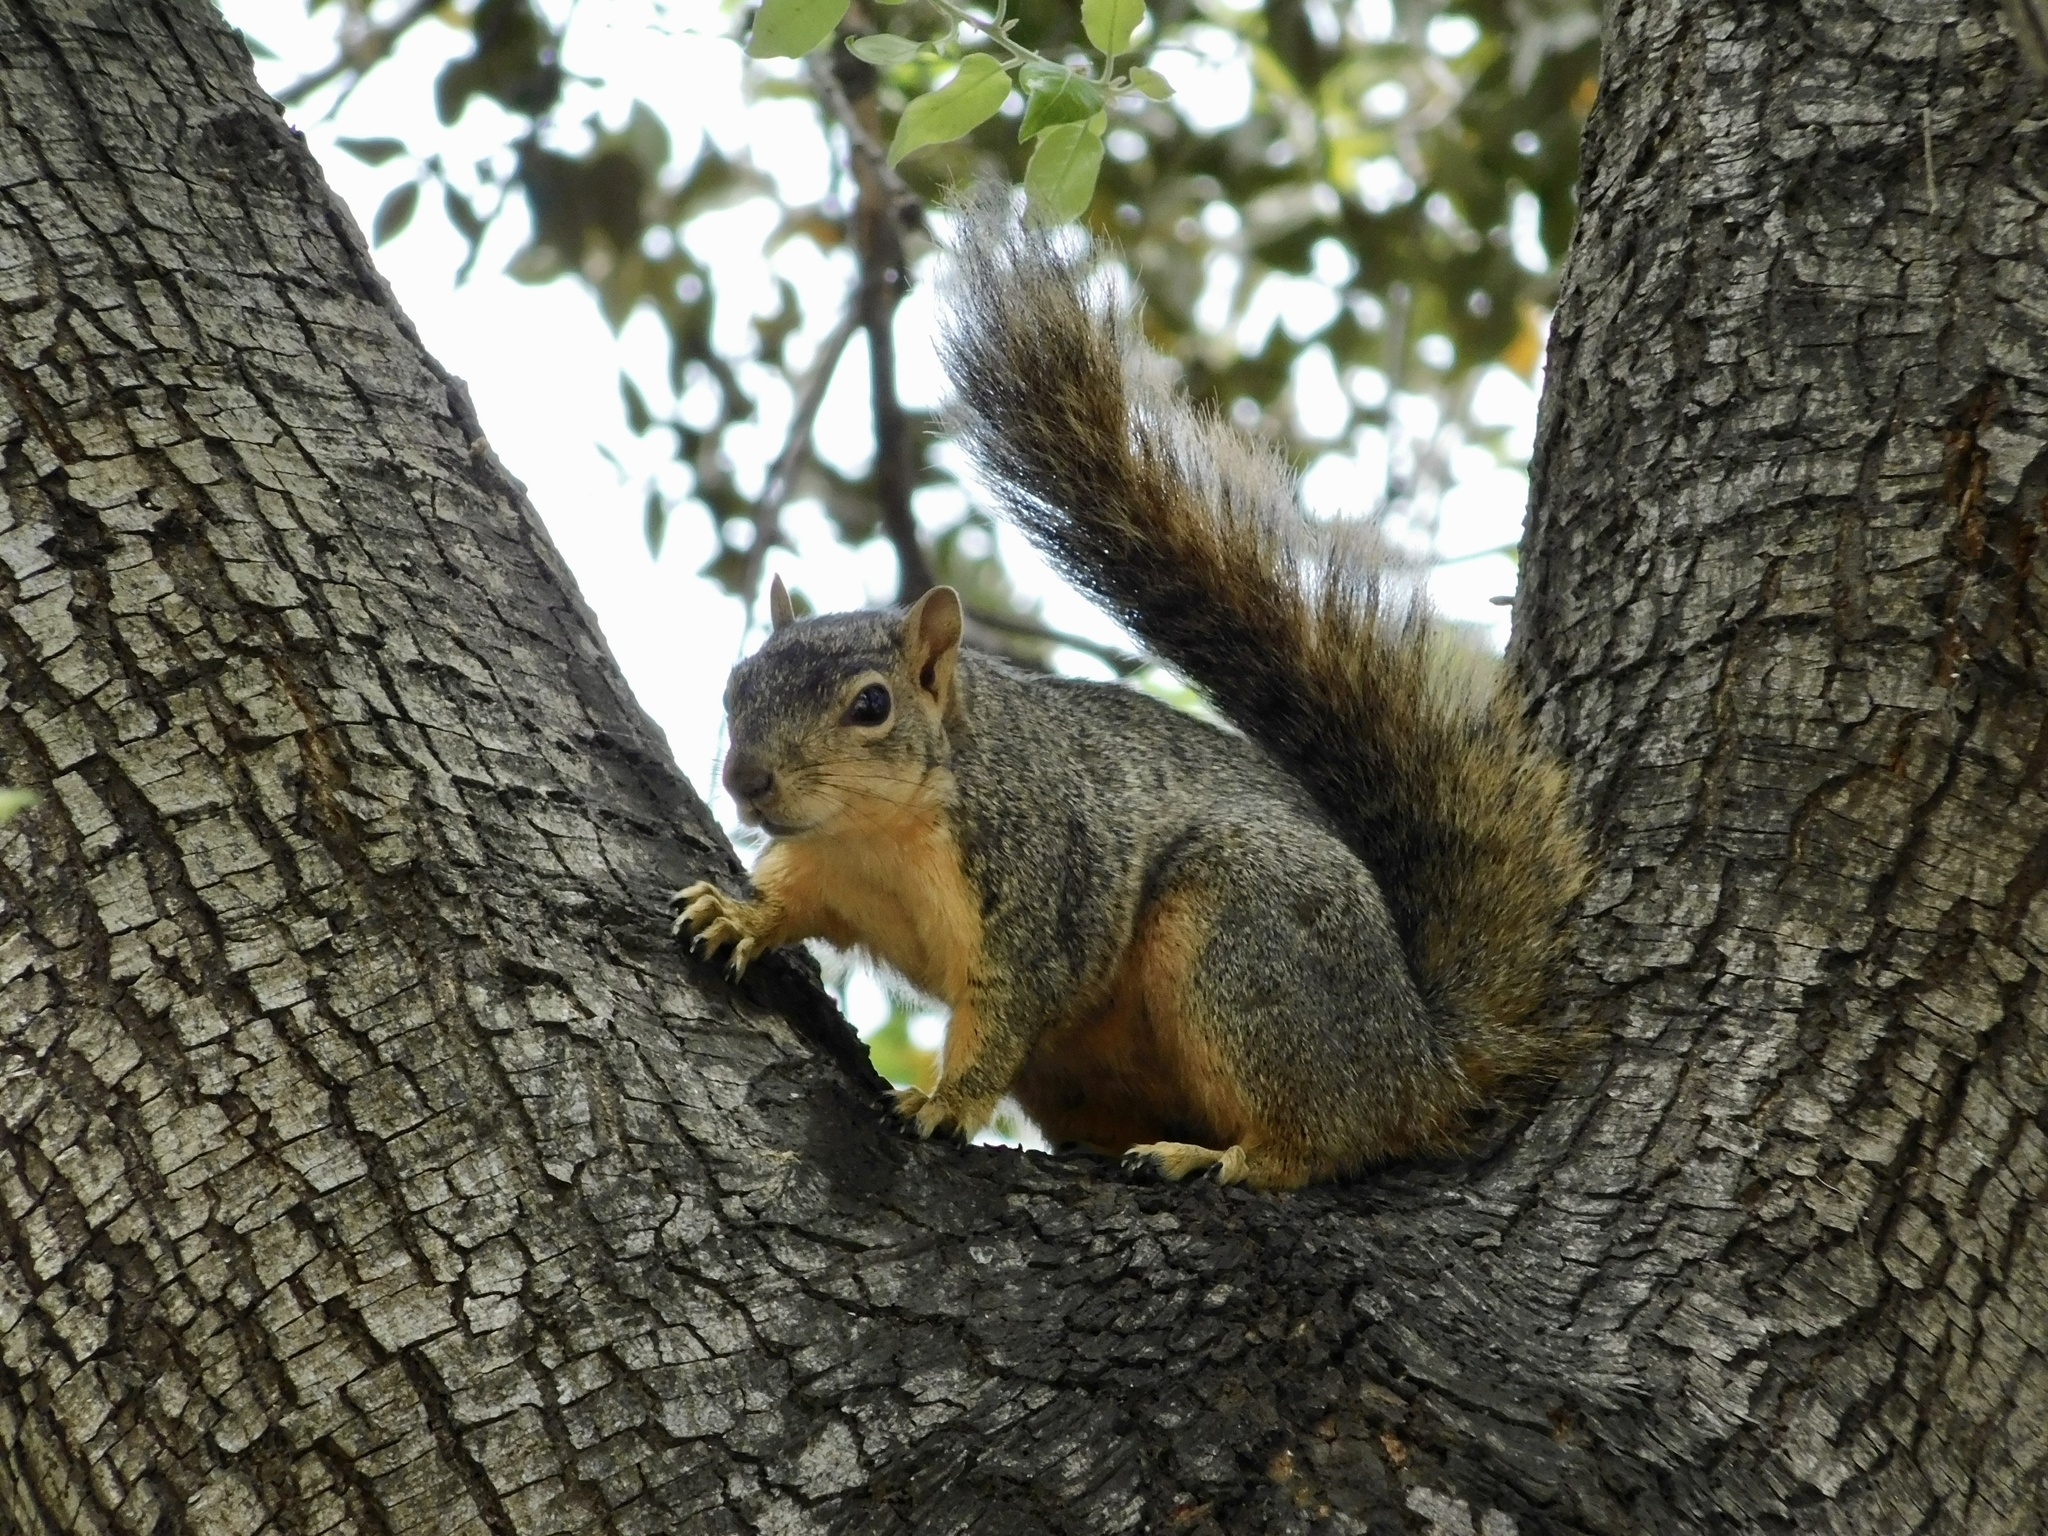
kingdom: Animalia
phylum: Chordata
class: Mammalia
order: Rodentia
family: Sciuridae
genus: Sciurus
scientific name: Sciurus niger
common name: Fox squirrel
